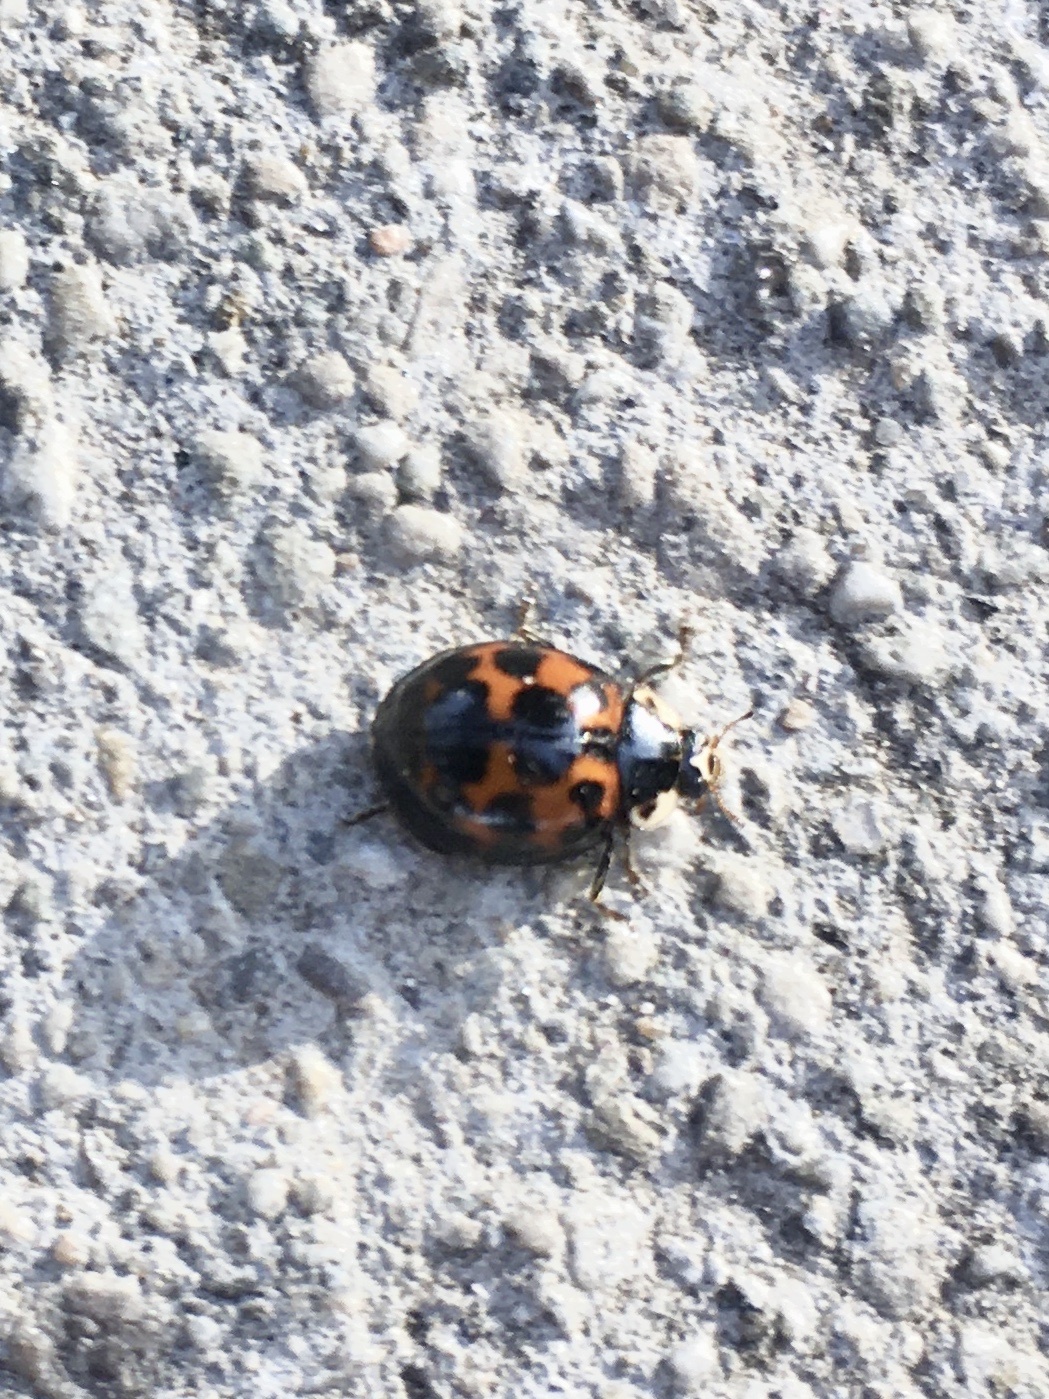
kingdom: Animalia
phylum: Arthropoda
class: Insecta
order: Coleoptera
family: Coccinellidae
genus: Harmonia
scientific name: Harmonia axyridis
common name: Harlequin ladybird
